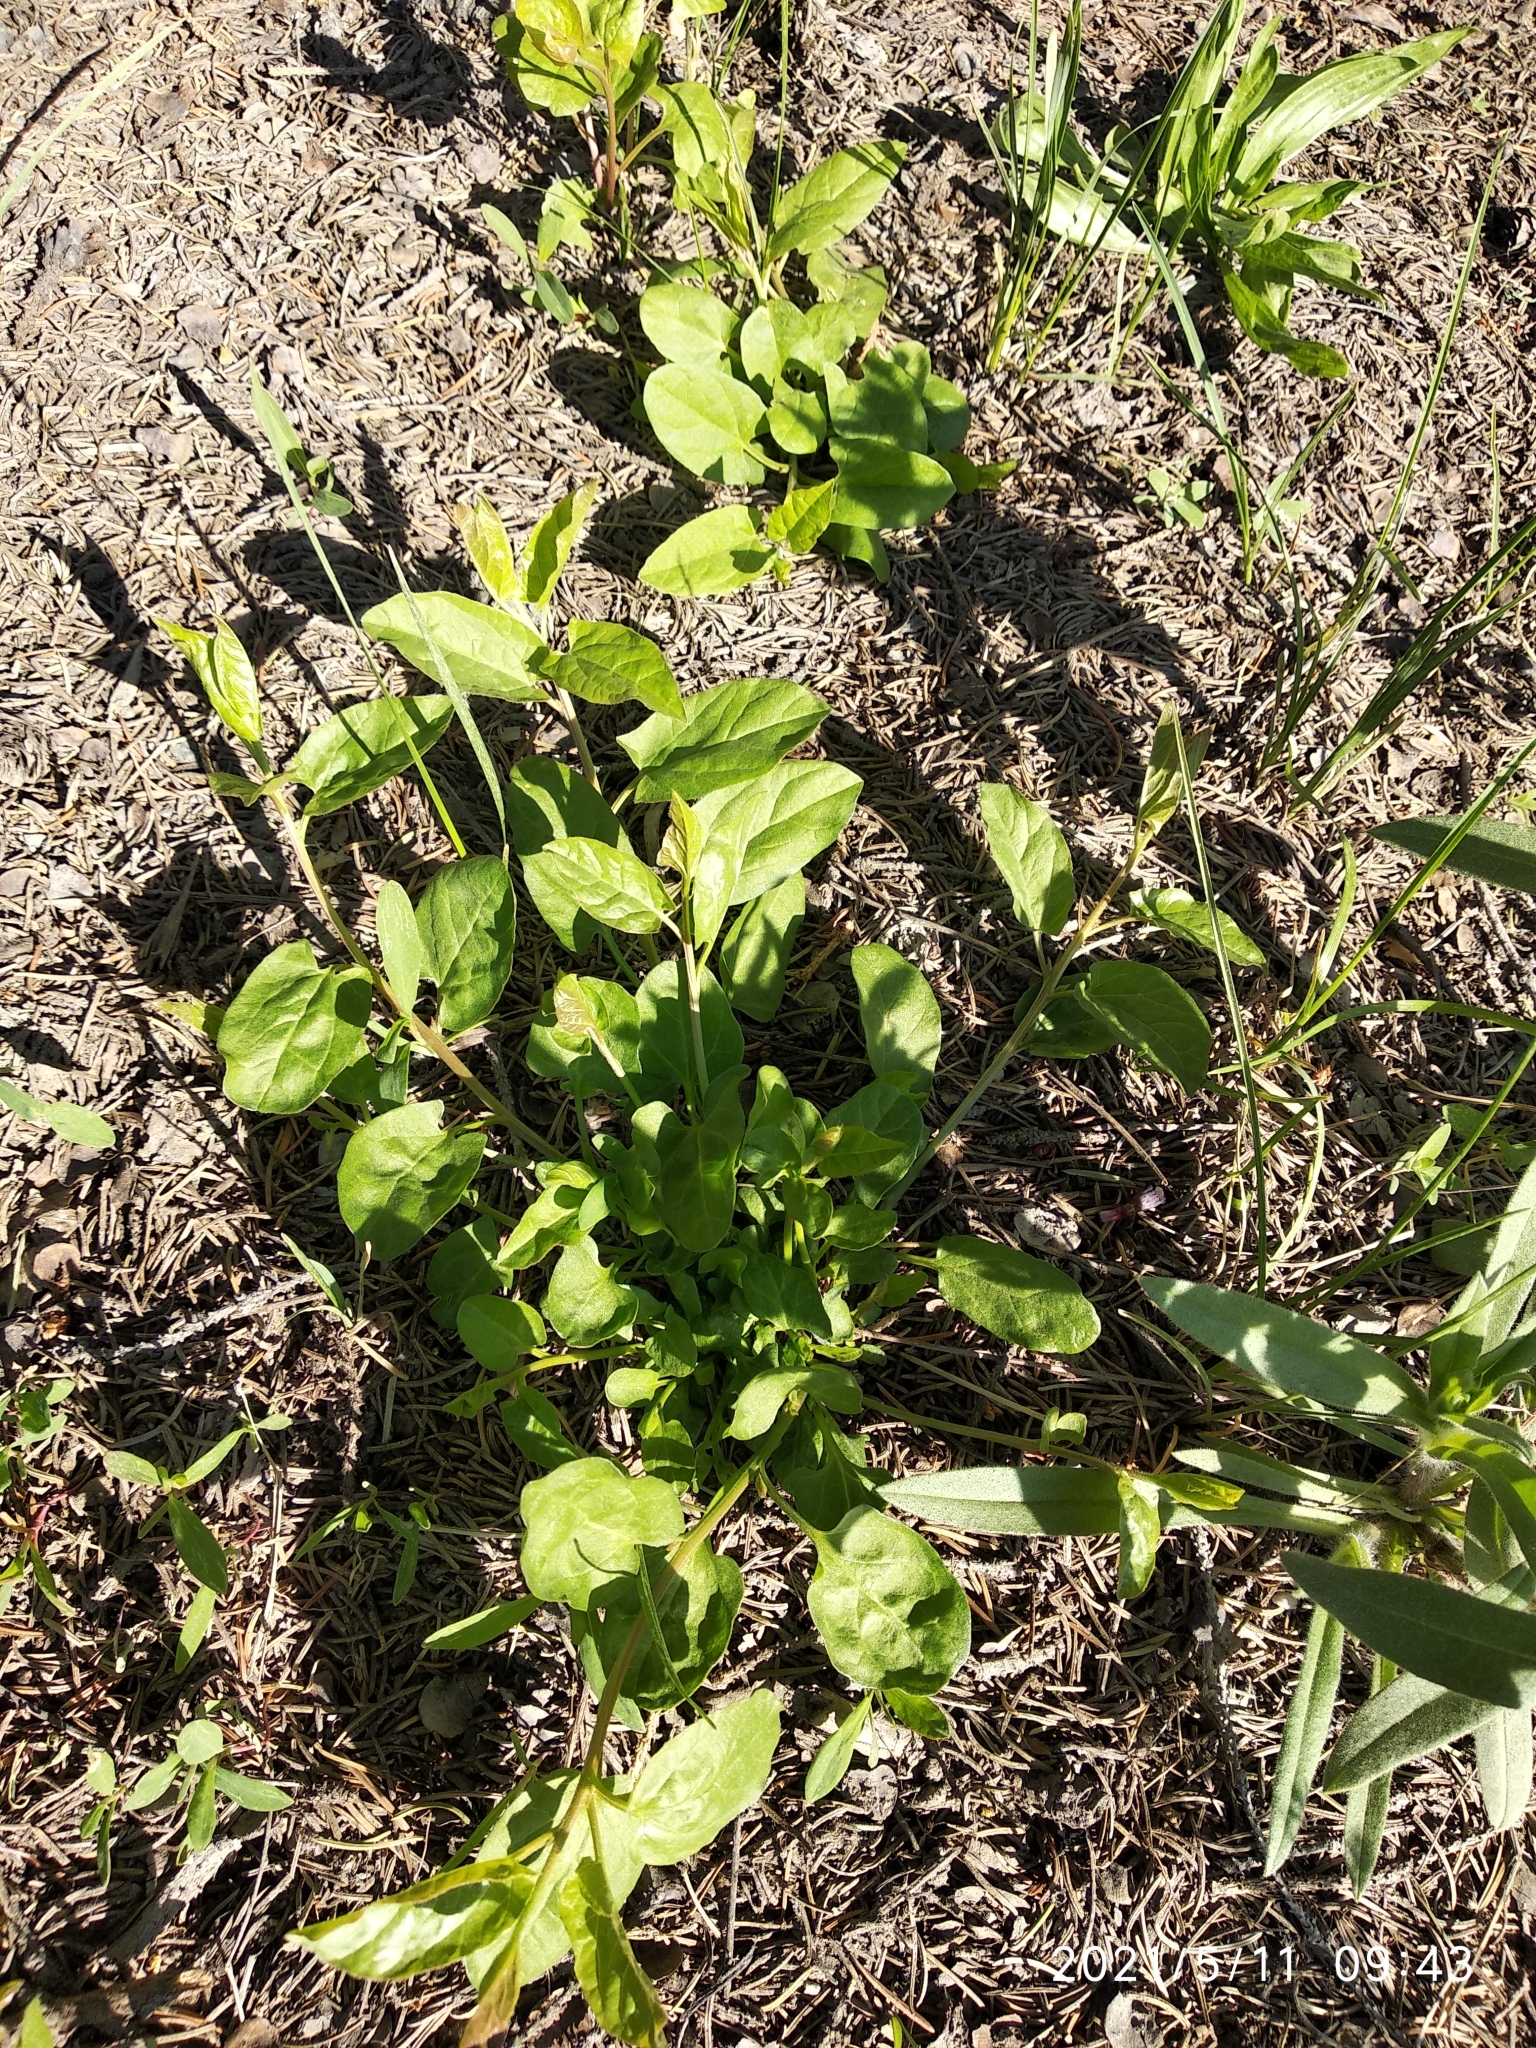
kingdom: Plantae
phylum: Tracheophyta
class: Magnoliopsida
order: Solanales
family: Convolvulaceae
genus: Convolvulus
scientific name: Convolvulus arvensis
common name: Field bindweed
